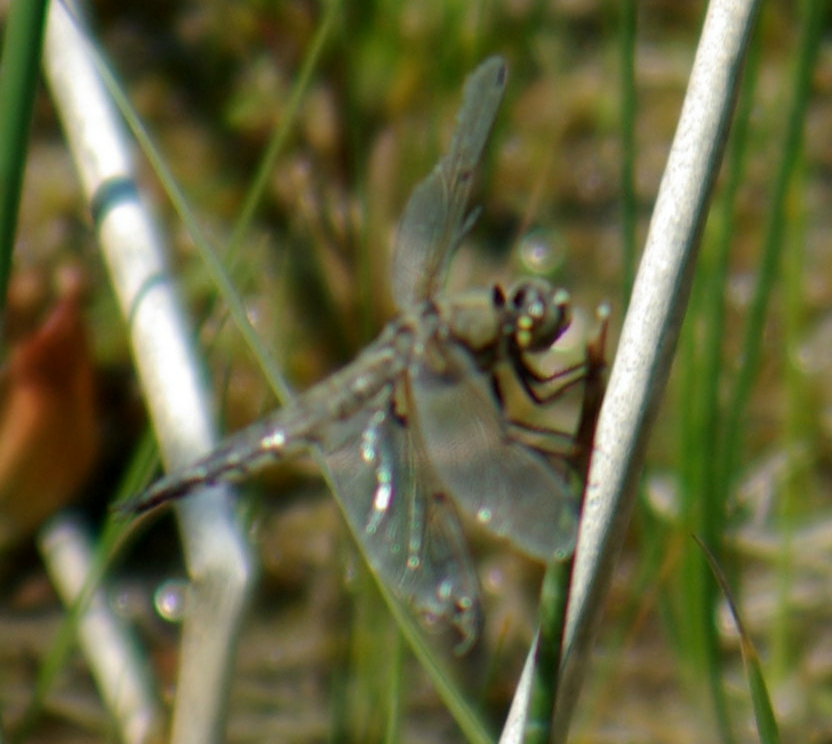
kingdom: Animalia
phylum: Arthropoda
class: Insecta
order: Odonata
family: Libellulidae
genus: Libellula
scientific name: Libellula quadrimaculata
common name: Four-spotted chaser
